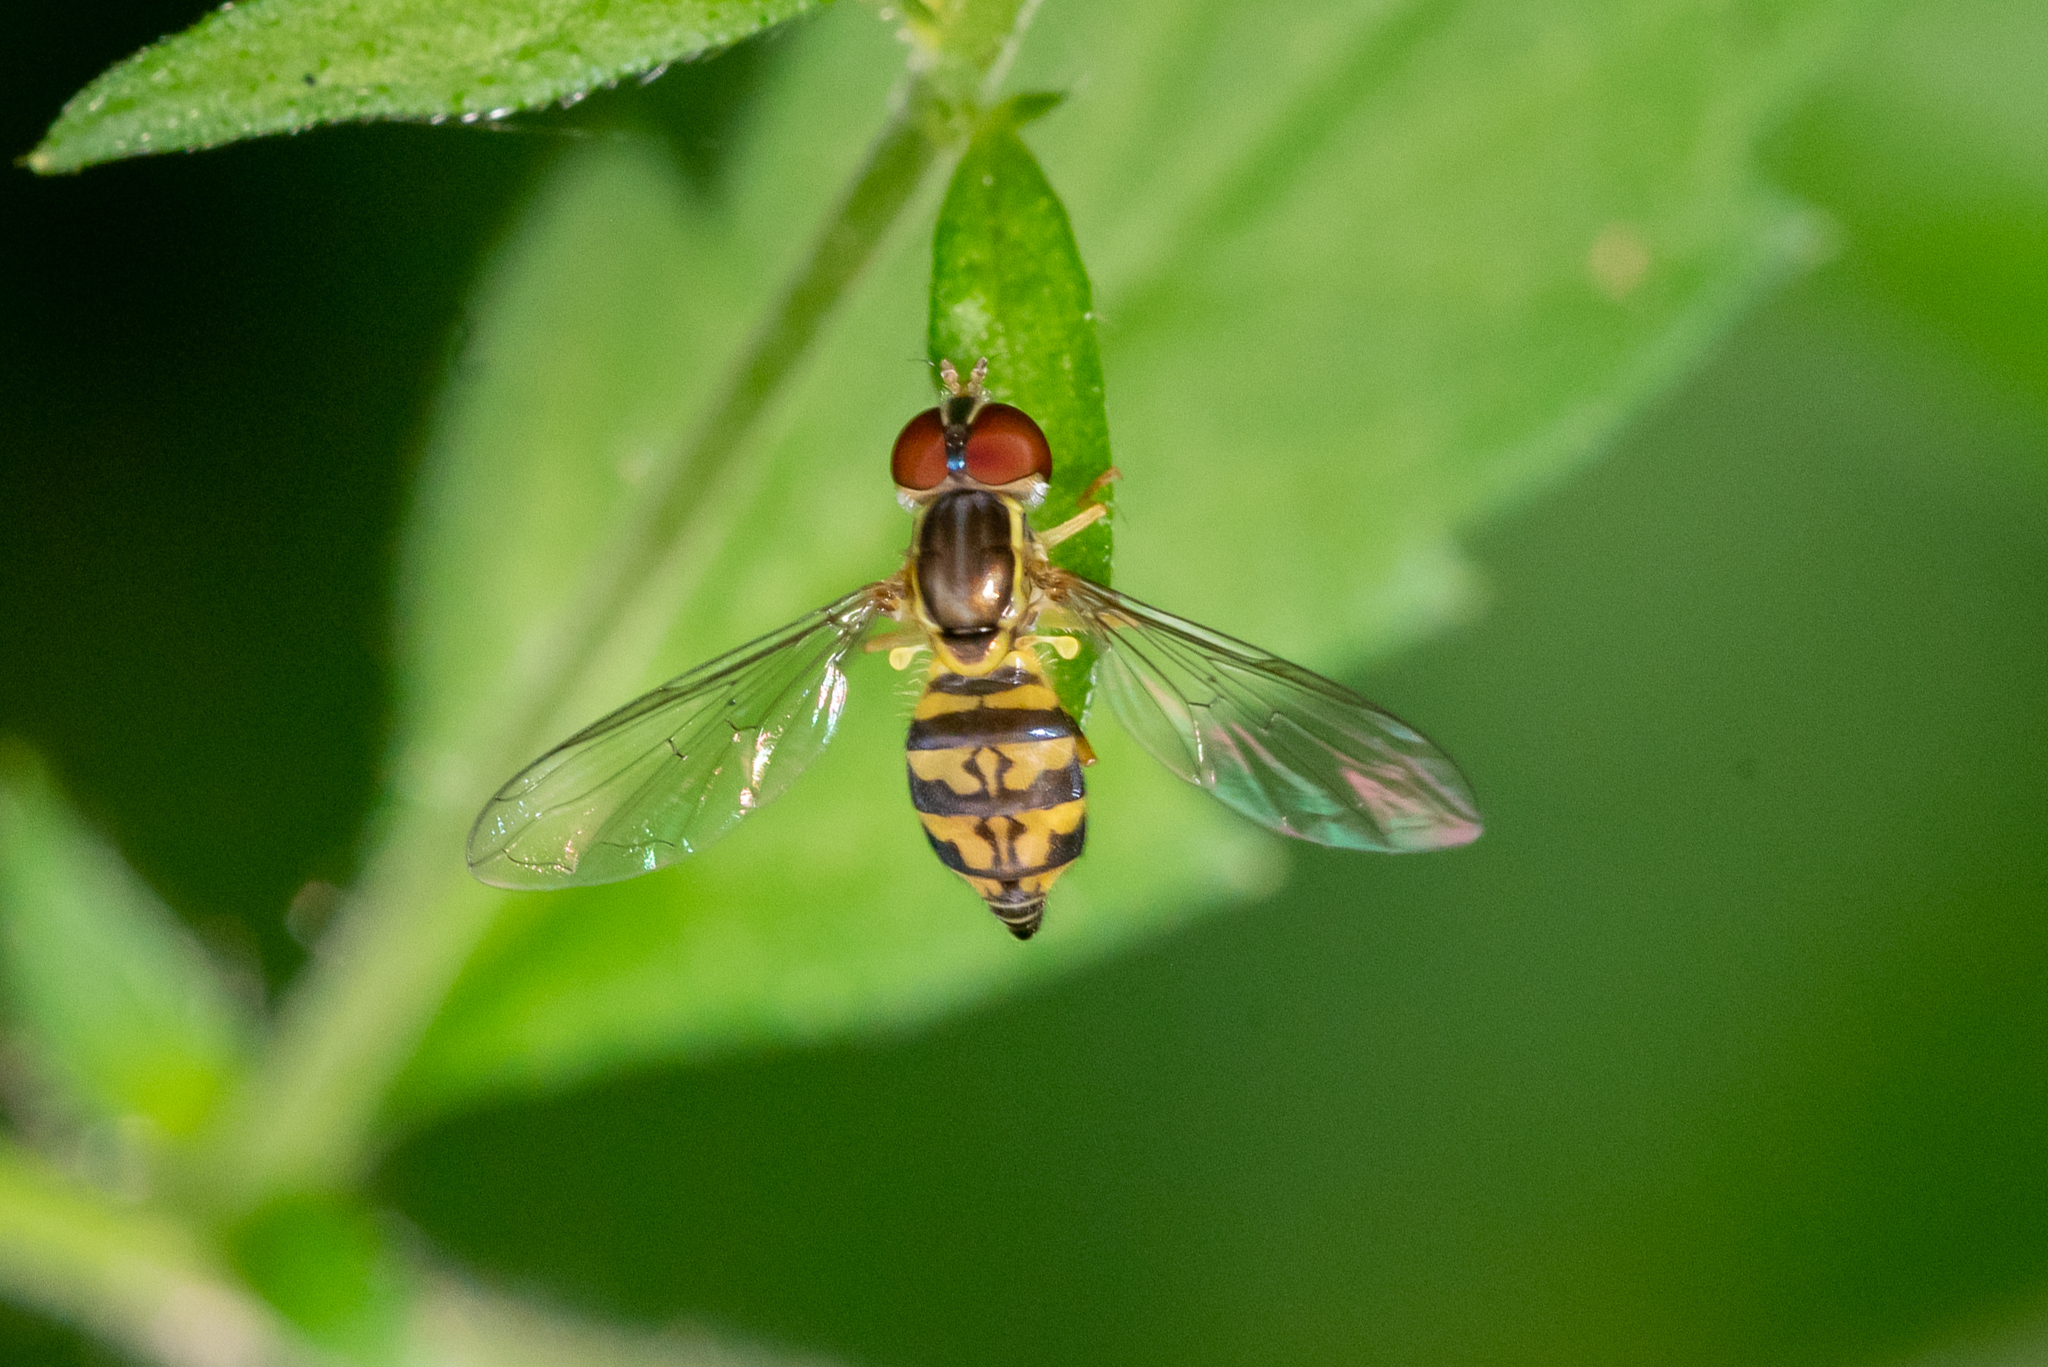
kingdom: Animalia
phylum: Arthropoda
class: Insecta
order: Diptera
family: Syrphidae
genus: Toxomerus
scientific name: Toxomerus geminatus
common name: Eastern calligrapher
